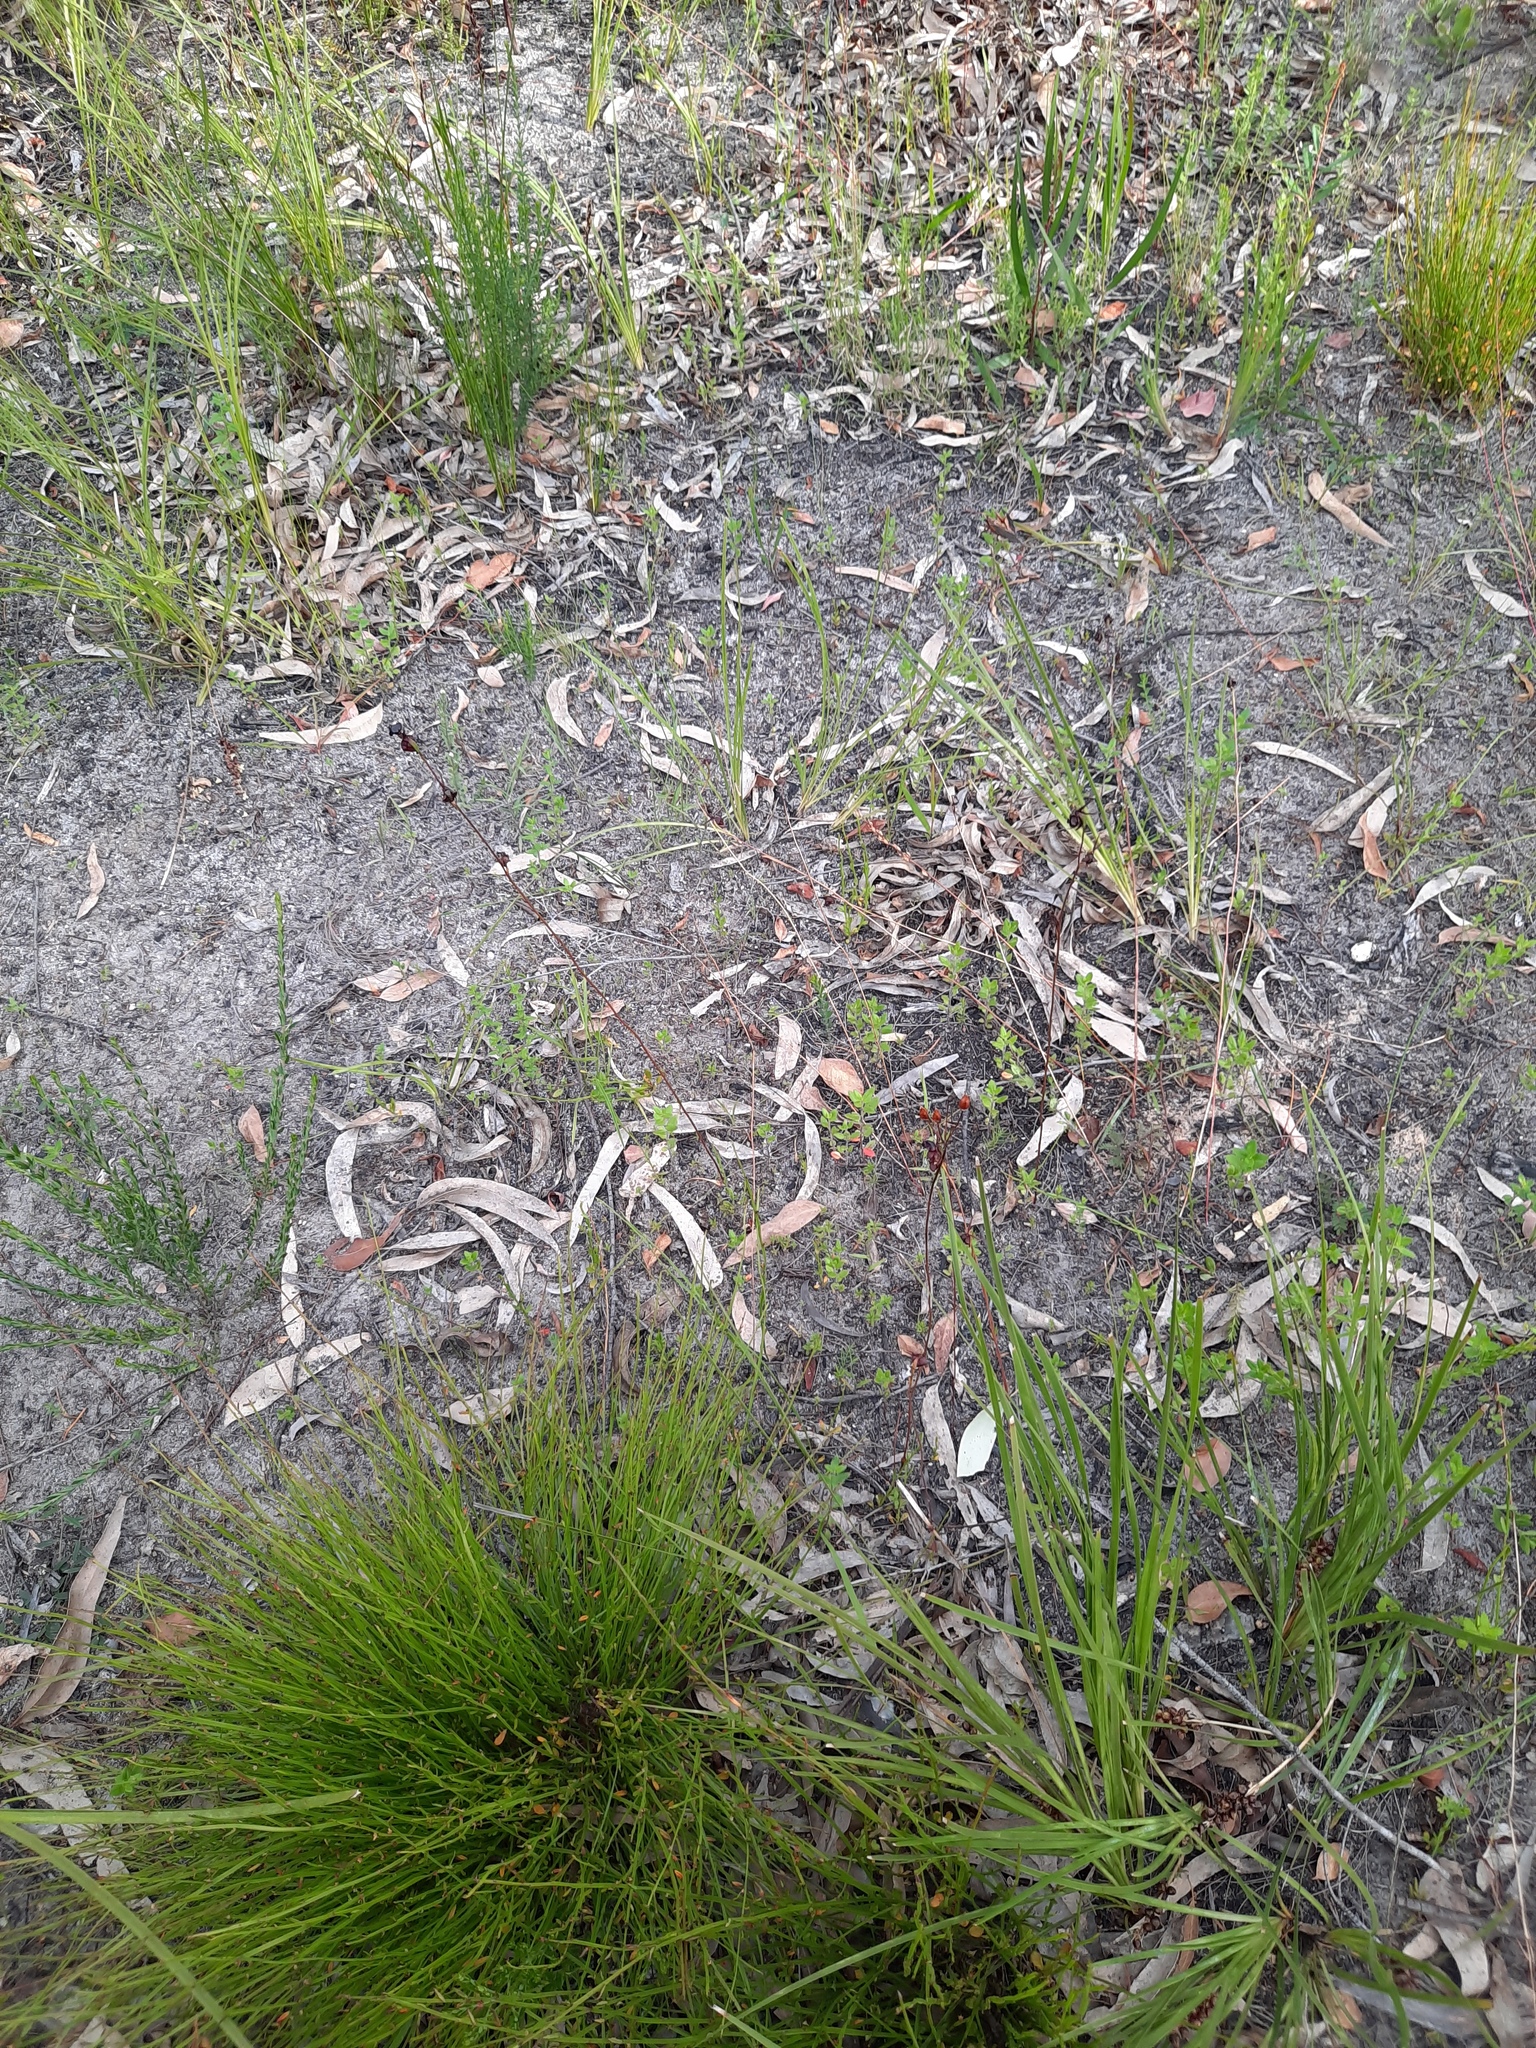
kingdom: Plantae
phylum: Tracheophyta
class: Liliopsida
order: Asparagales
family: Orchidaceae
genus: Caleana
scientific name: Caleana major
